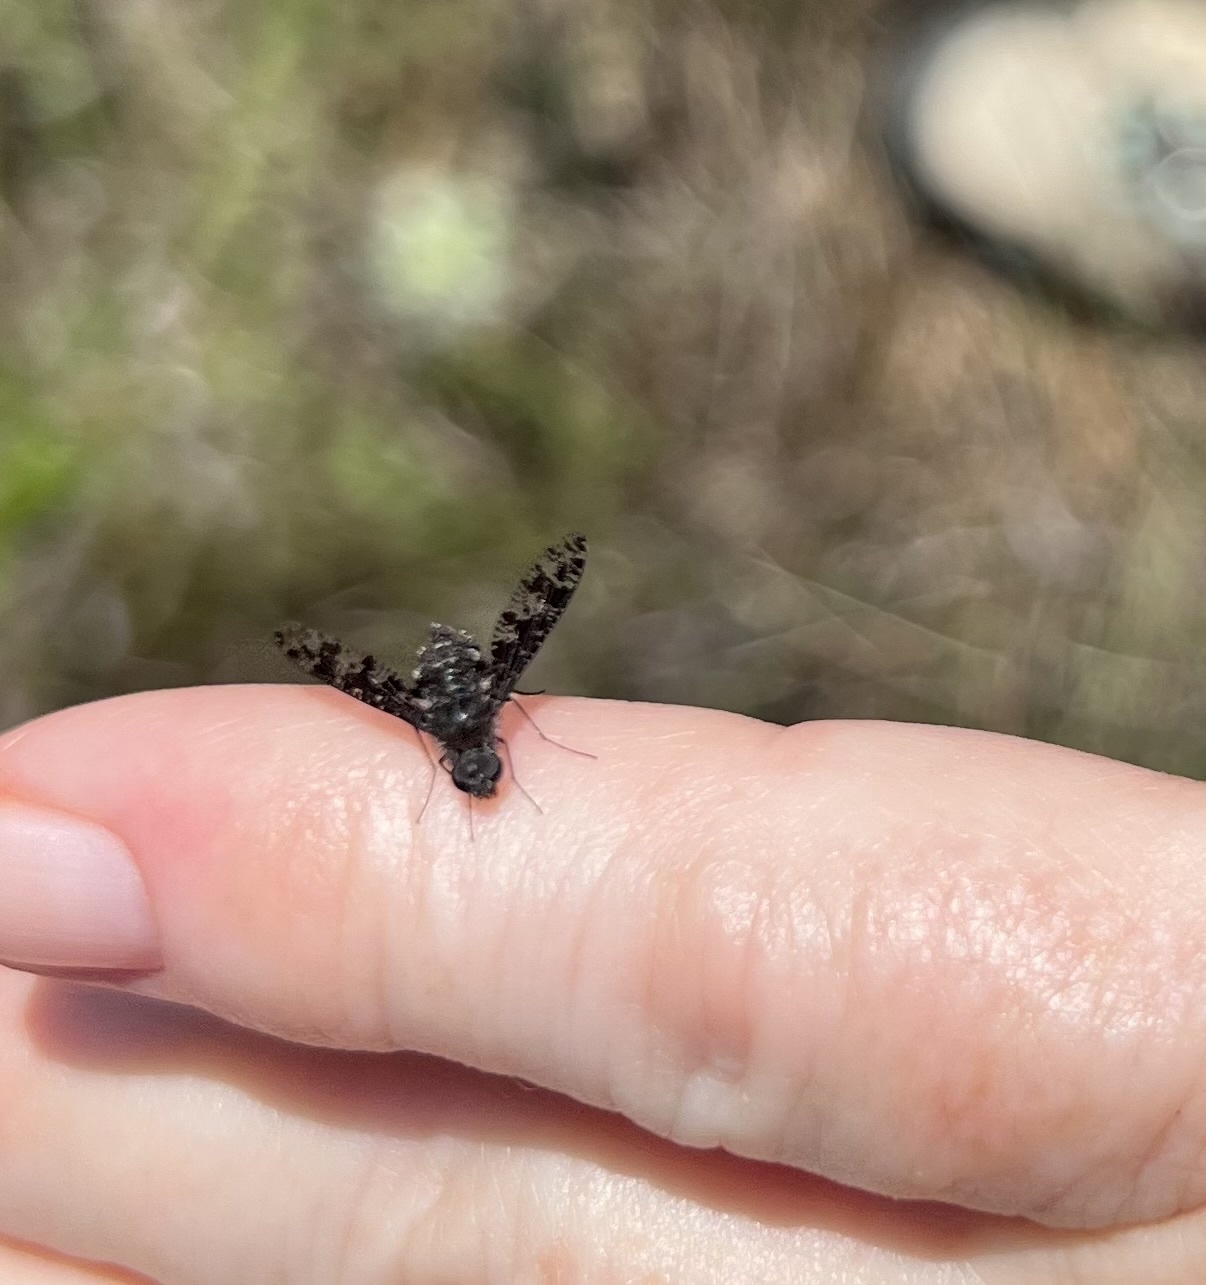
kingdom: Animalia
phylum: Arthropoda
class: Insecta
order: Diptera
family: Bombyliidae
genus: Anthrax
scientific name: Anthrax
